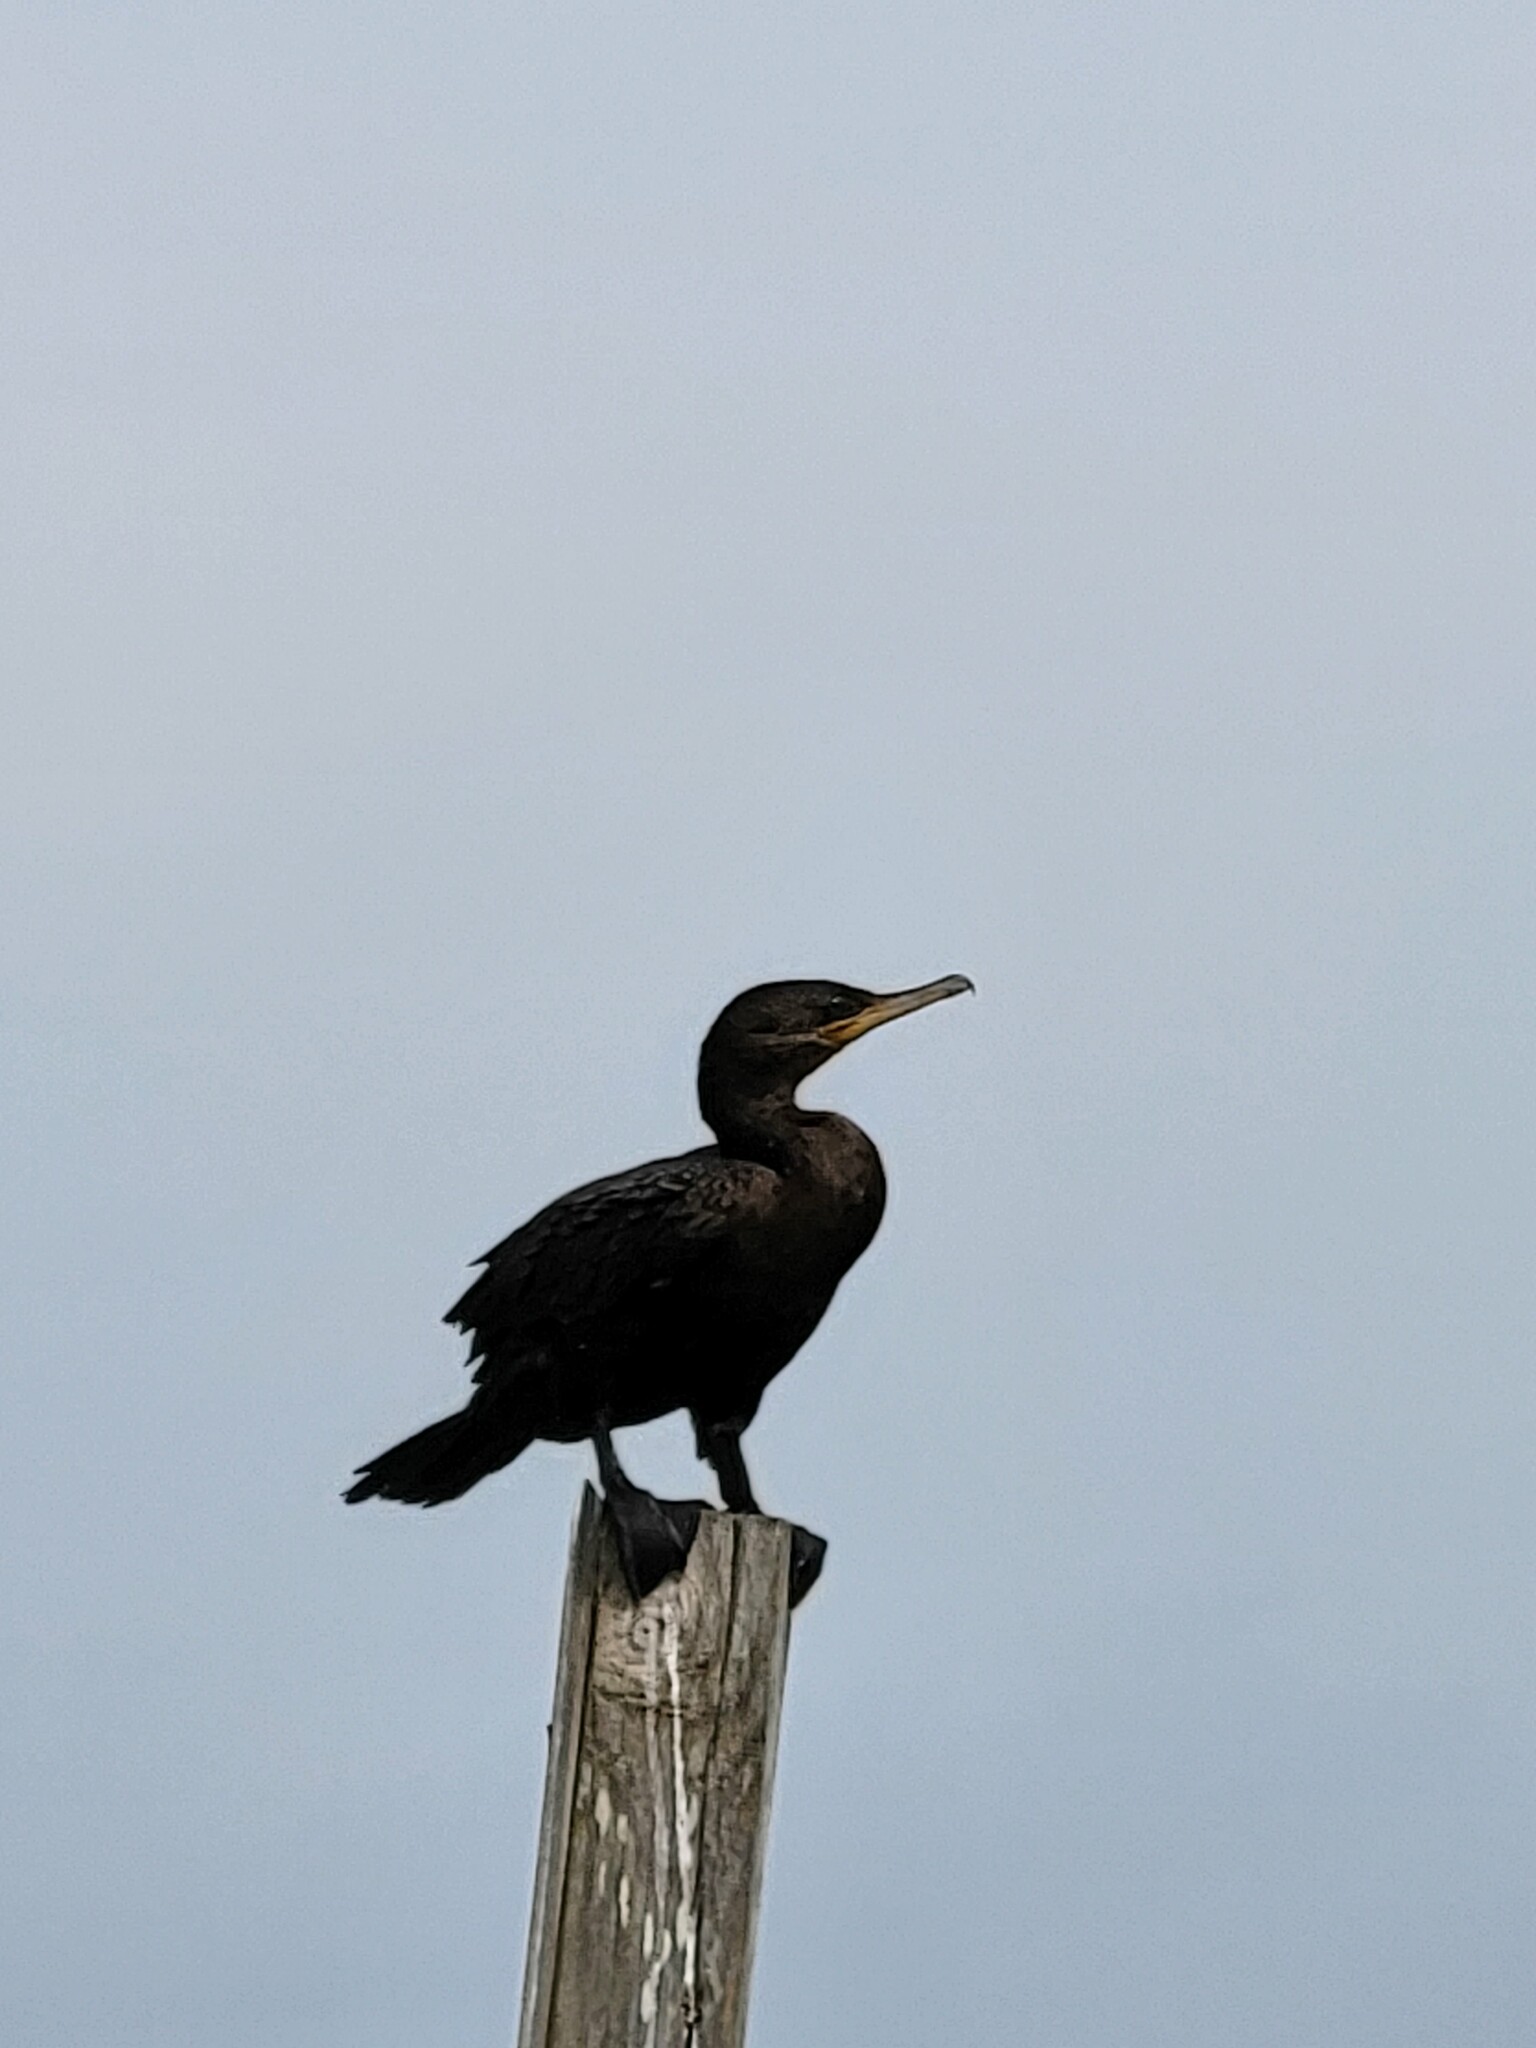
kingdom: Animalia
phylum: Chordata
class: Aves
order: Suliformes
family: Phalacrocoracidae
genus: Phalacrocorax
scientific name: Phalacrocorax brasilianus
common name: Neotropic cormorant
